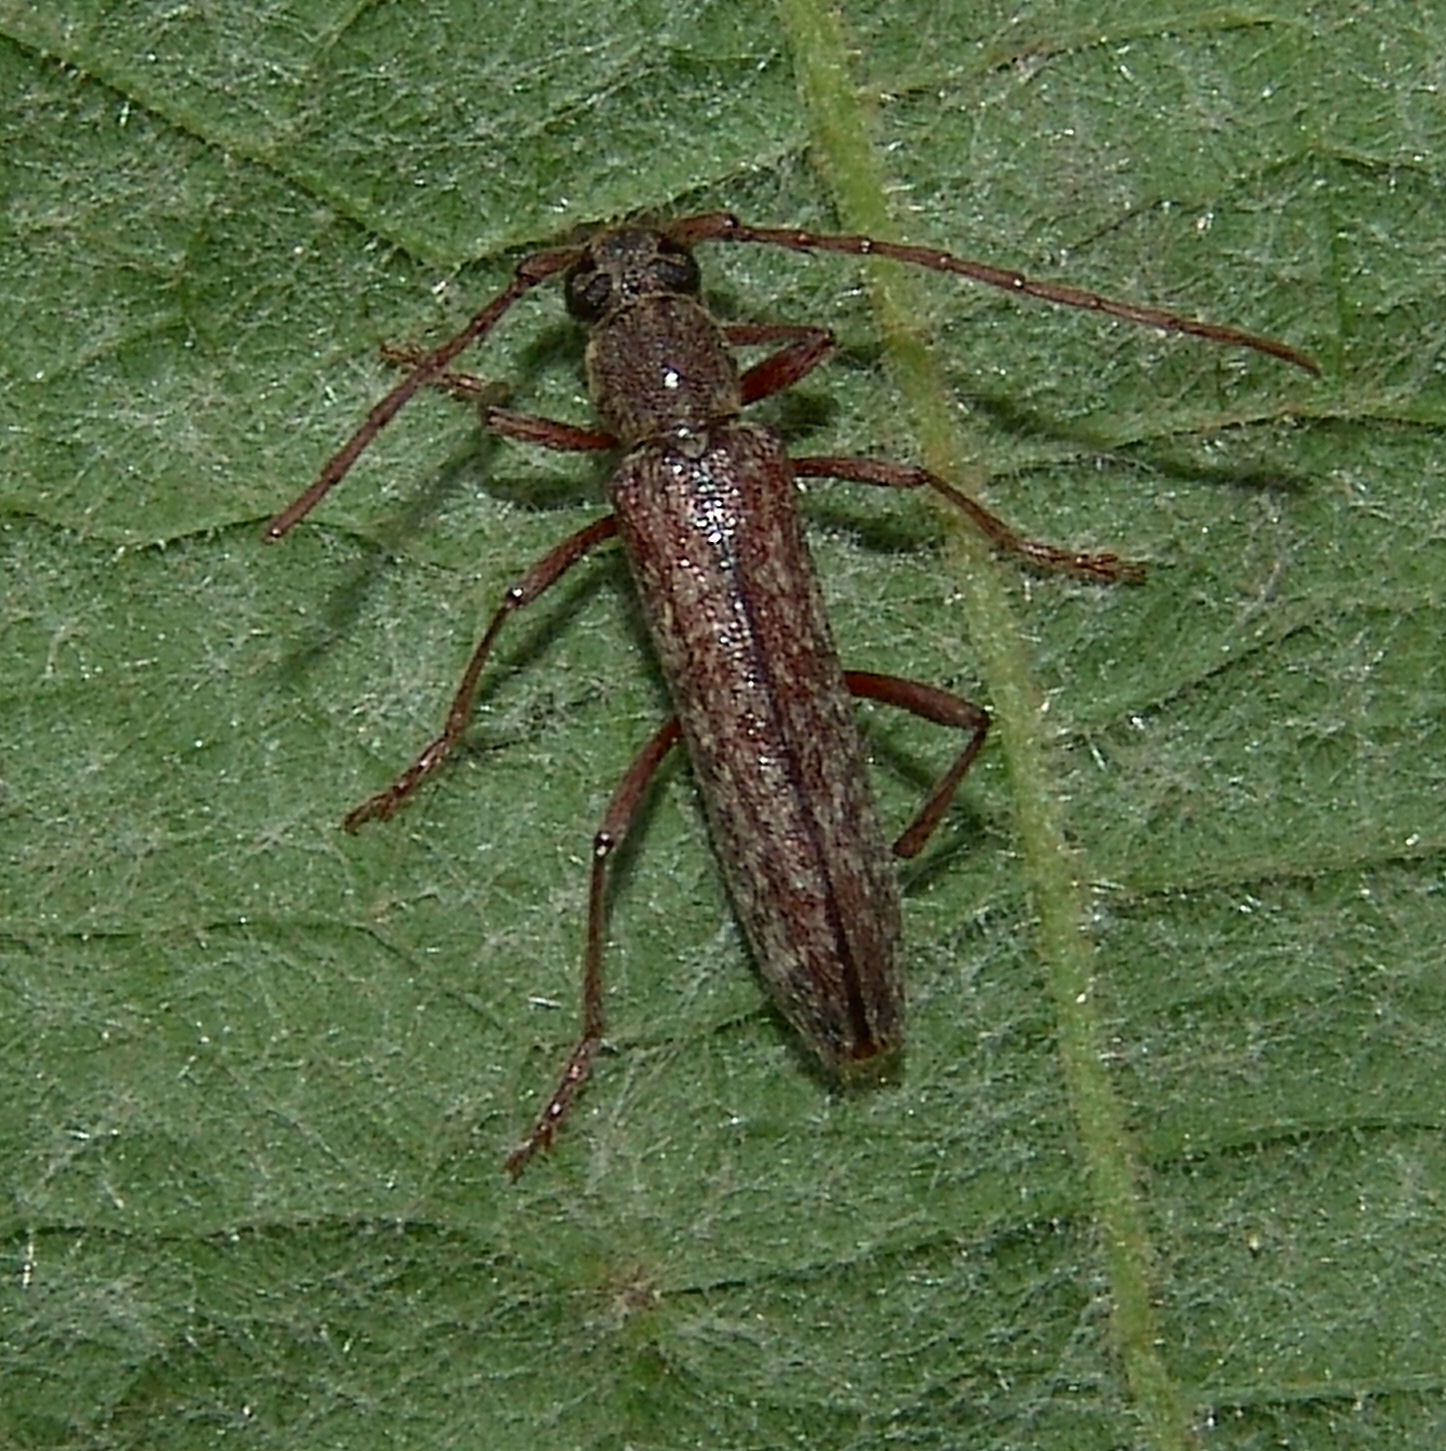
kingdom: Animalia
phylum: Arthropoda
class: Insecta
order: Coleoptera
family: Cerambycidae
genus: Anelaphus
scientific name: Anelaphus villosus
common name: Twig pruner
